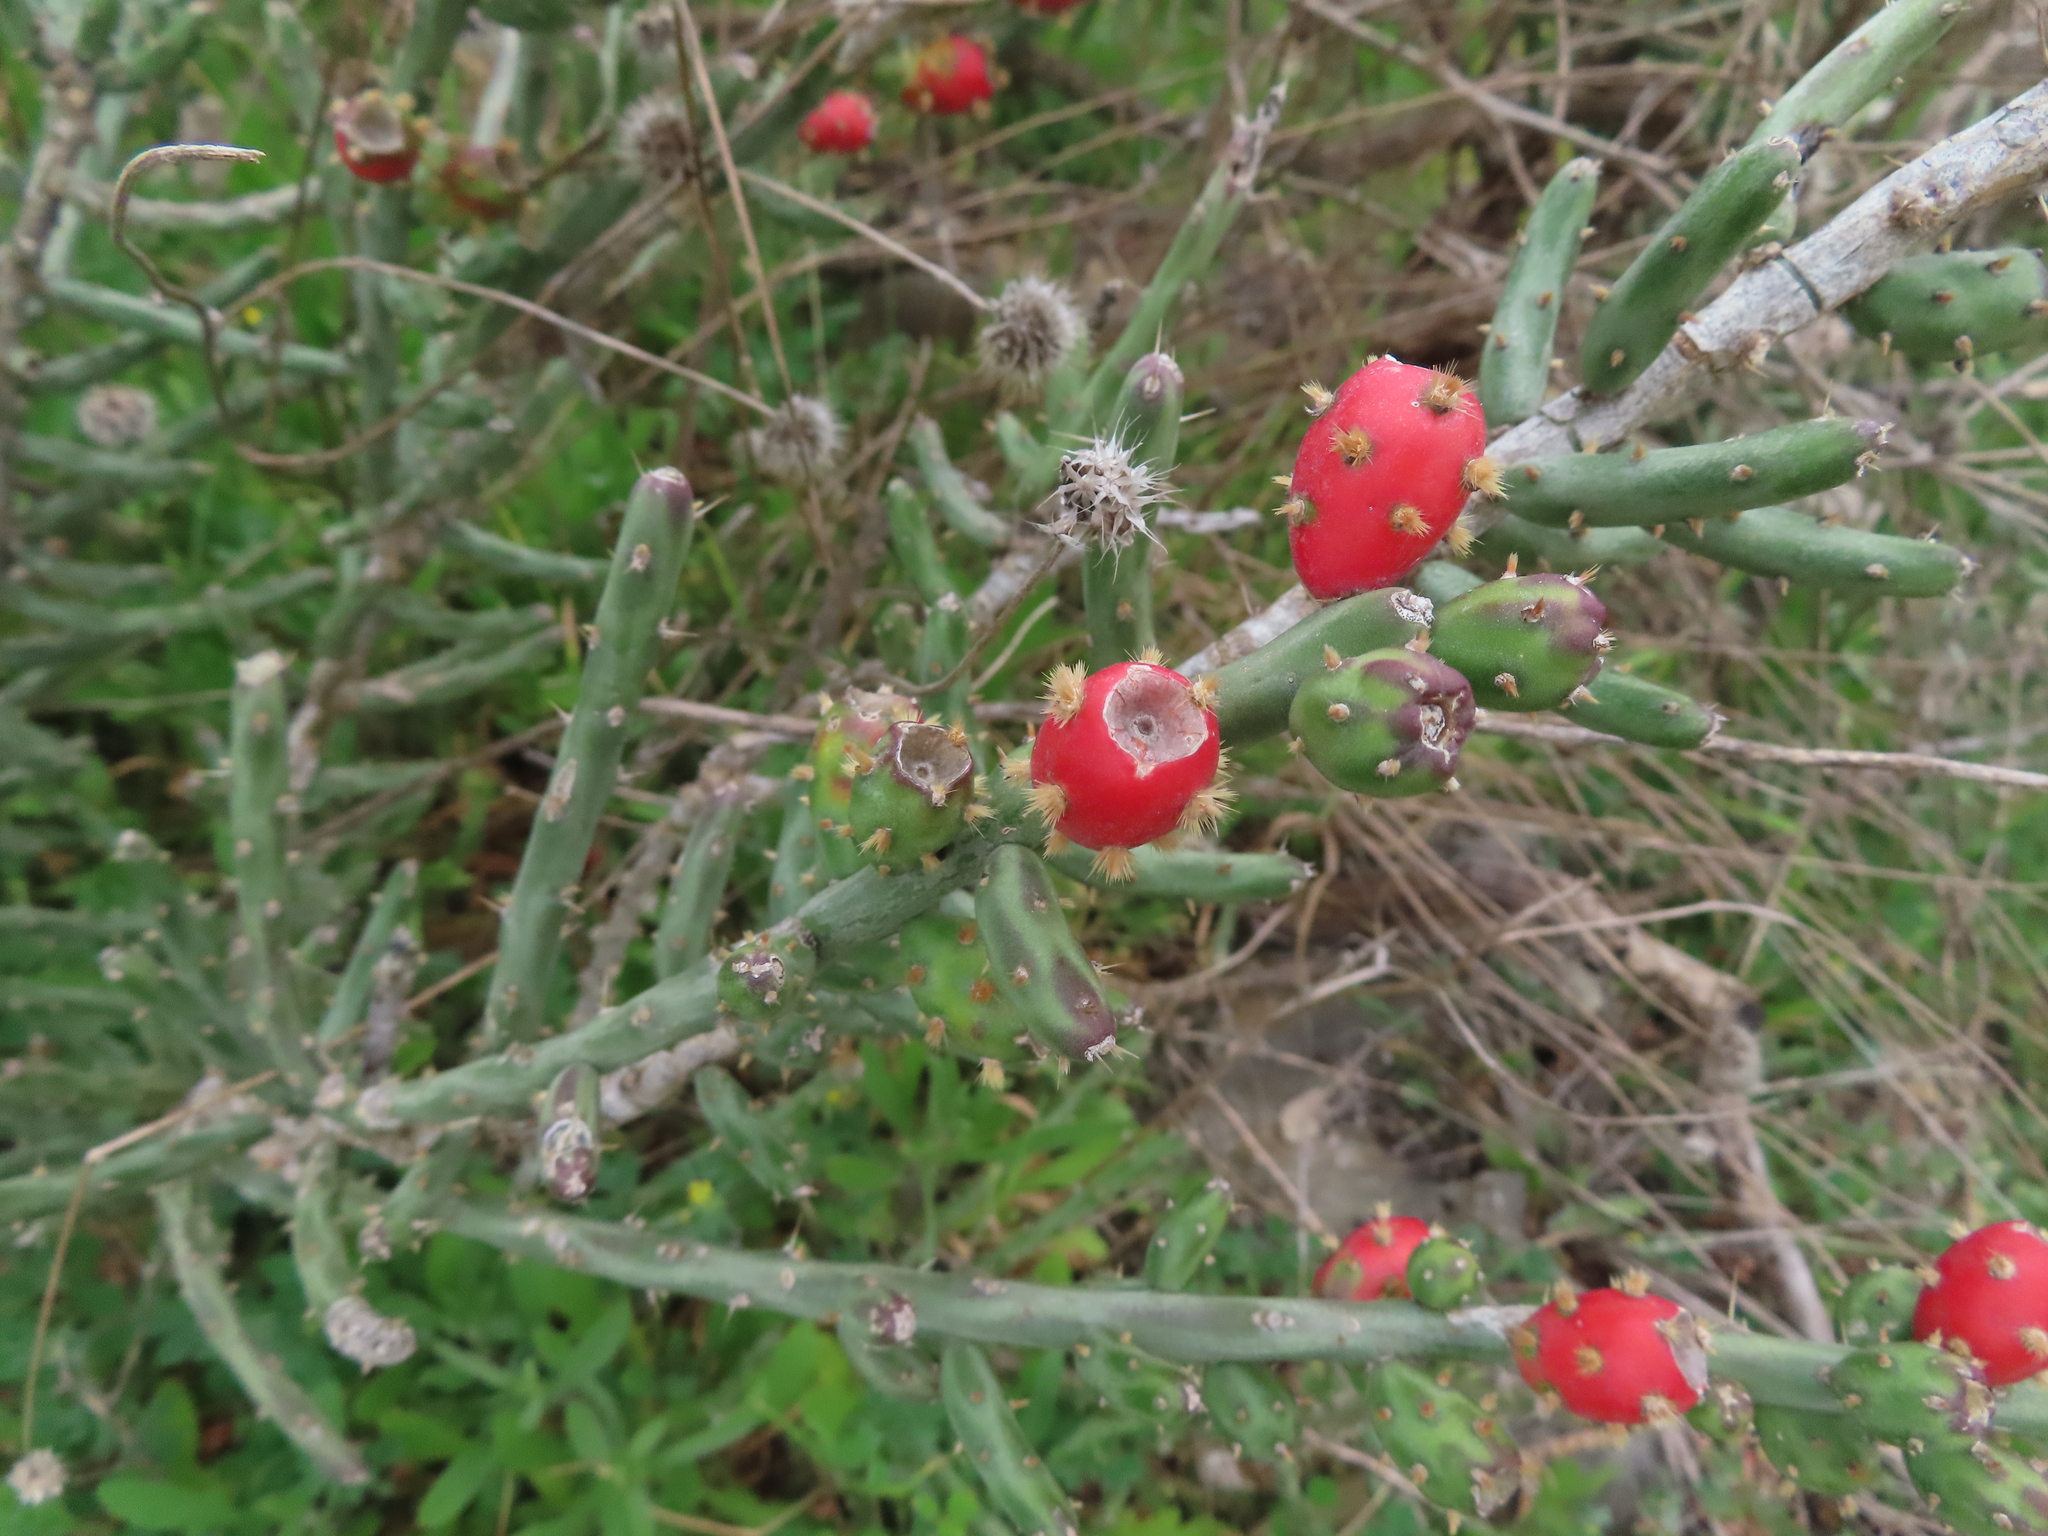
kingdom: Plantae
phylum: Tracheophyta
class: Magnoliopsida
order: Caryophyllales
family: Cactaceae
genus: Cylindropuntia
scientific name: Cylindropuntia leptocaulis
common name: Christmas cactus
